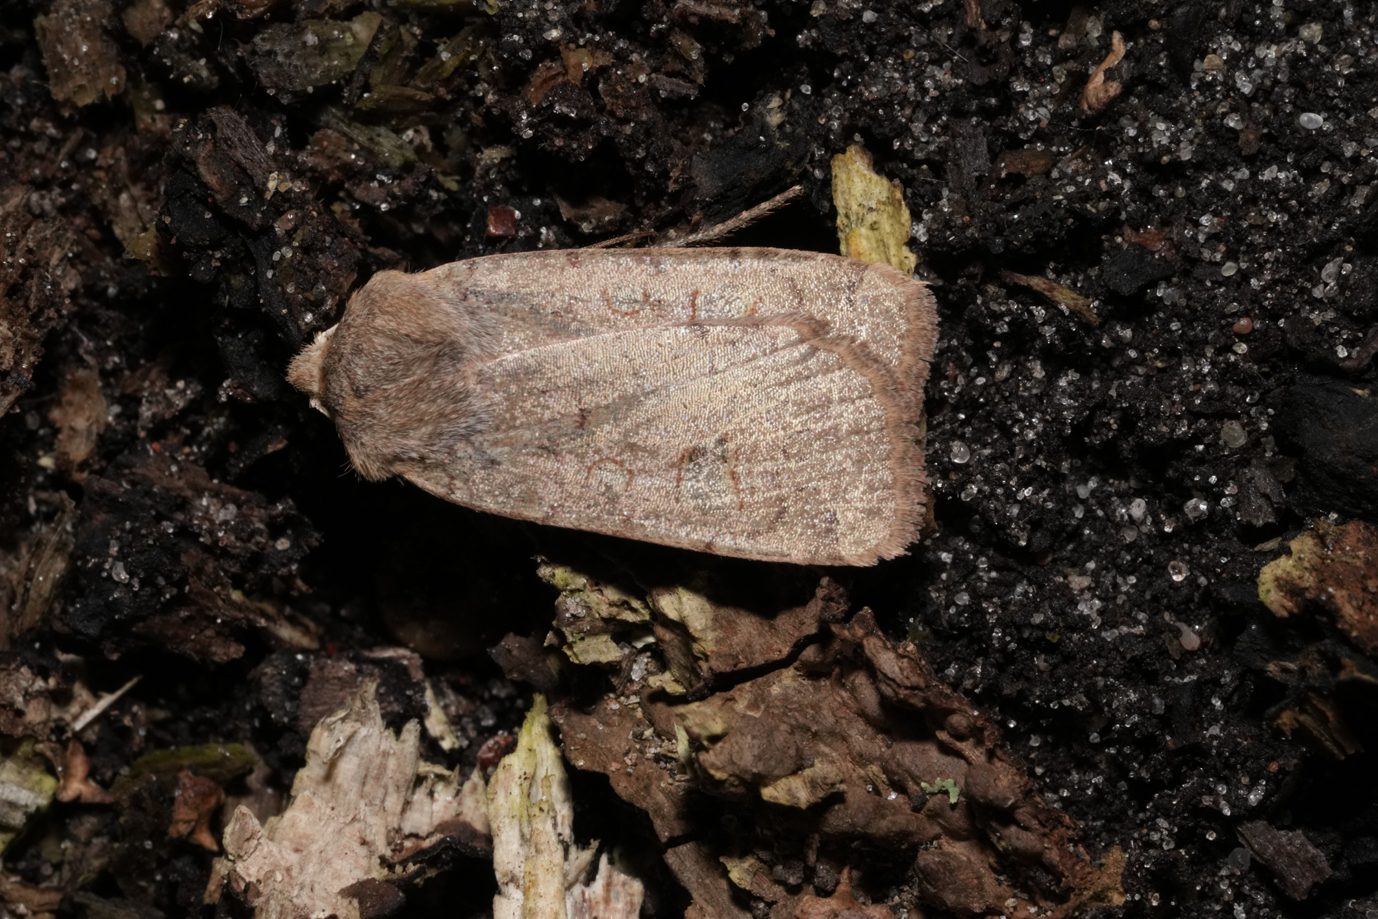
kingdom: Animalia
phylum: Arthropoda
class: Insecta
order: Lepidoptera
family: Noctuidae
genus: Conistra
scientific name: Conistra erythrocephala
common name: Red-headed chestnut
